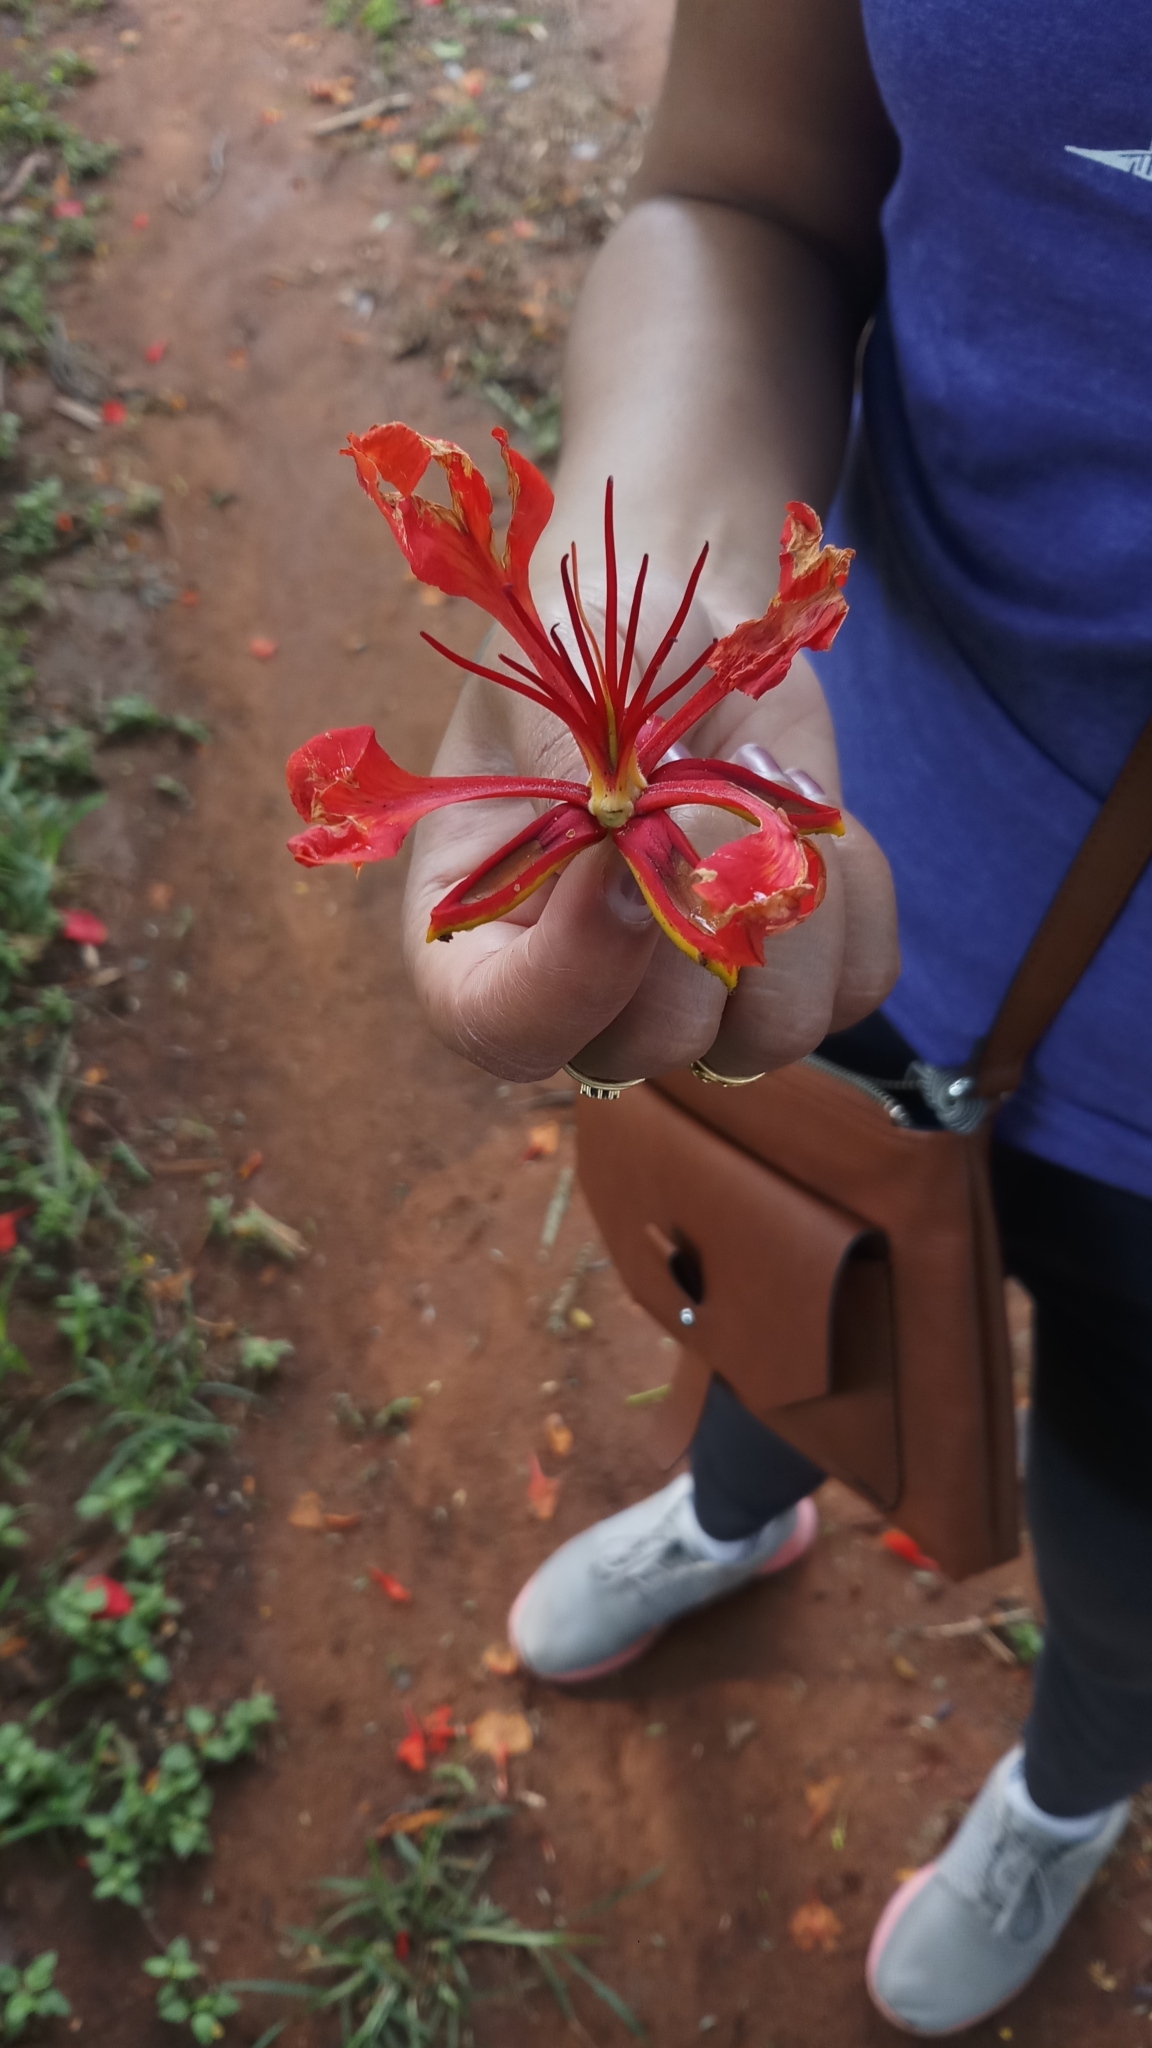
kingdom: Plantae
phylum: Tracheophyta
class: Magnoliopsida
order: Fabales
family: Fabaceae
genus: Delonix
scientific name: Delonix regia
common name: Royal poinciana
